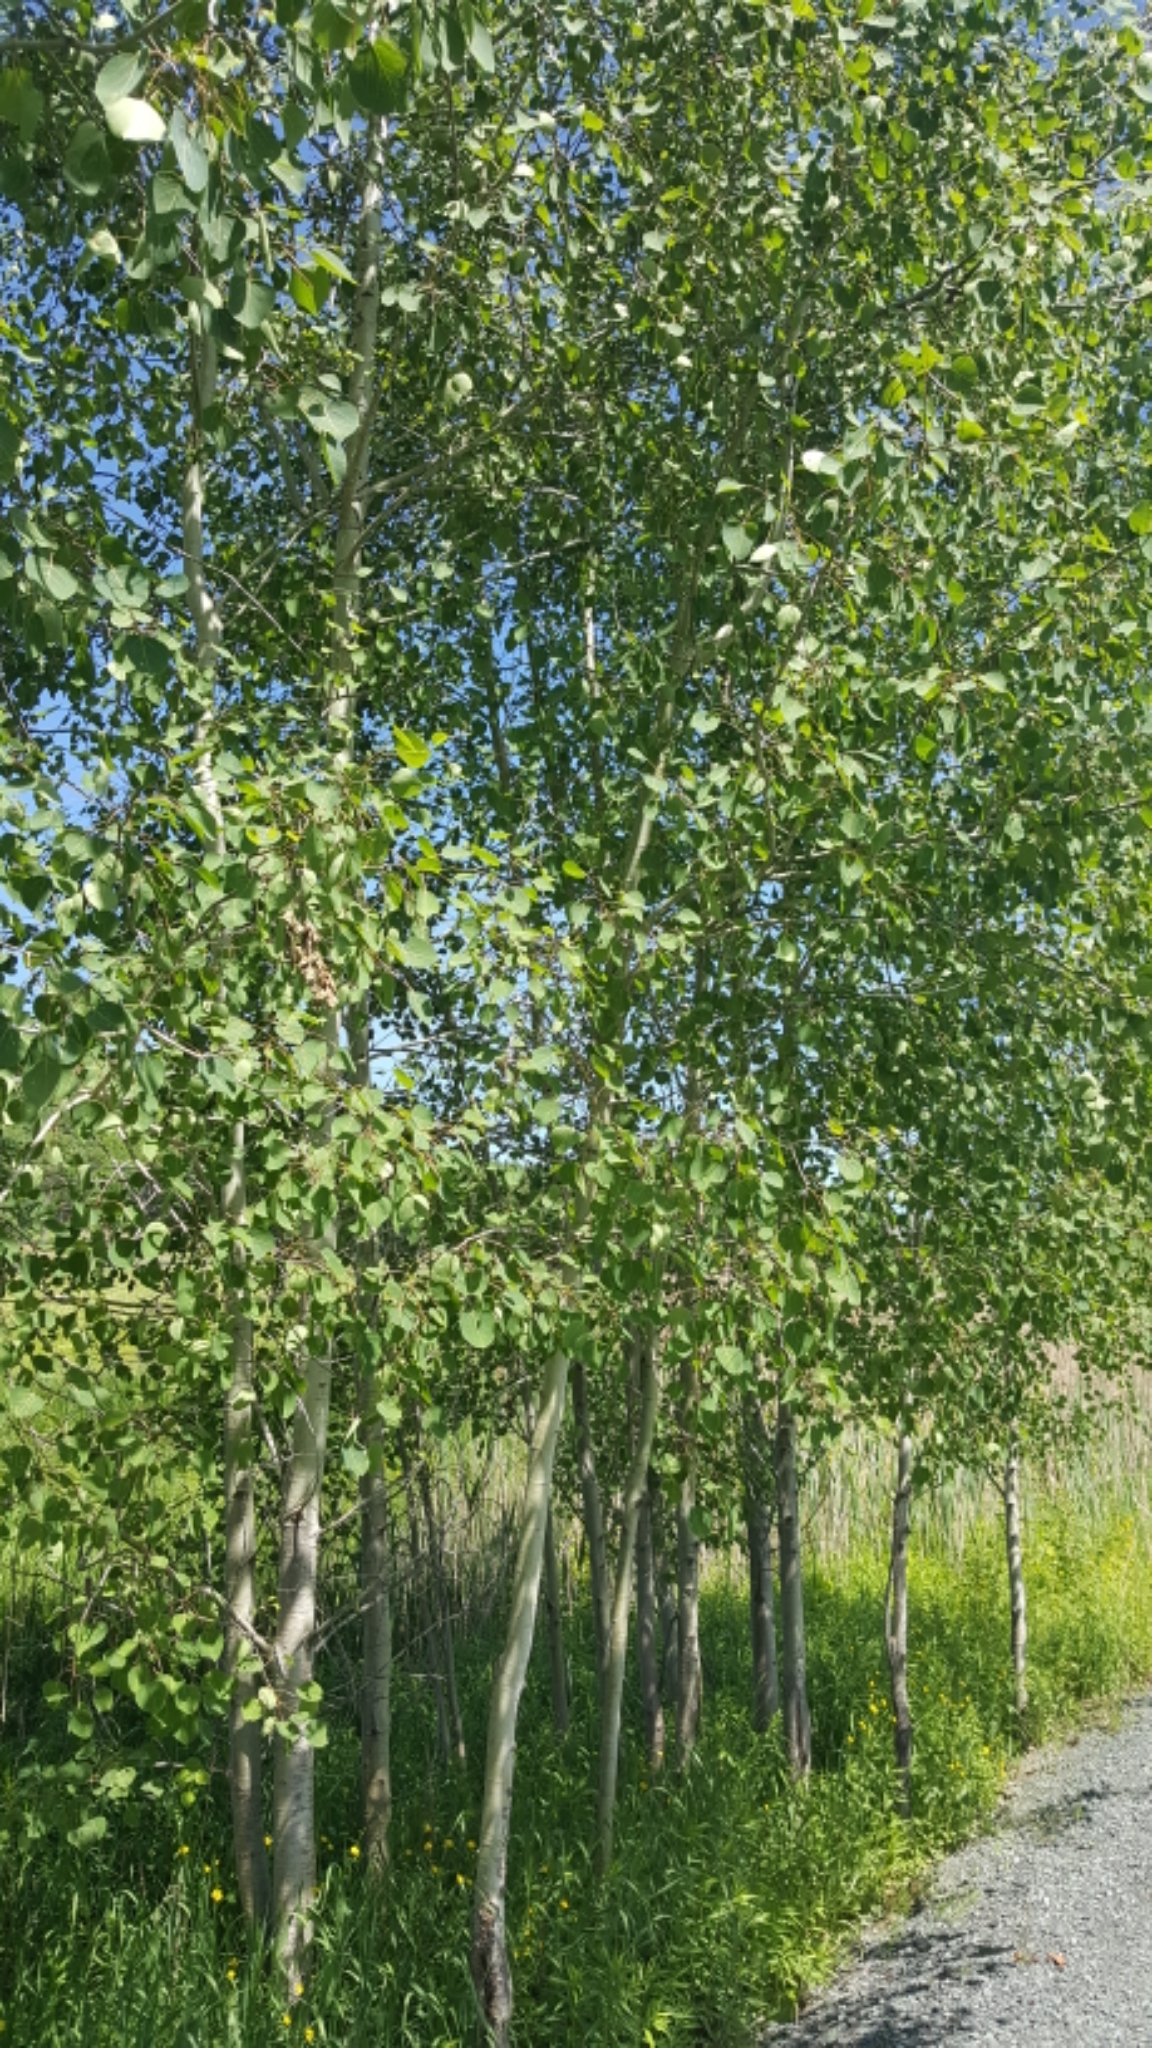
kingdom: Plantae
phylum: Tracheophyta
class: Magnoliopsida
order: Malpighiales
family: Salicaceae
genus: Populus
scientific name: Populus tremuloides
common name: Quaking aspen
